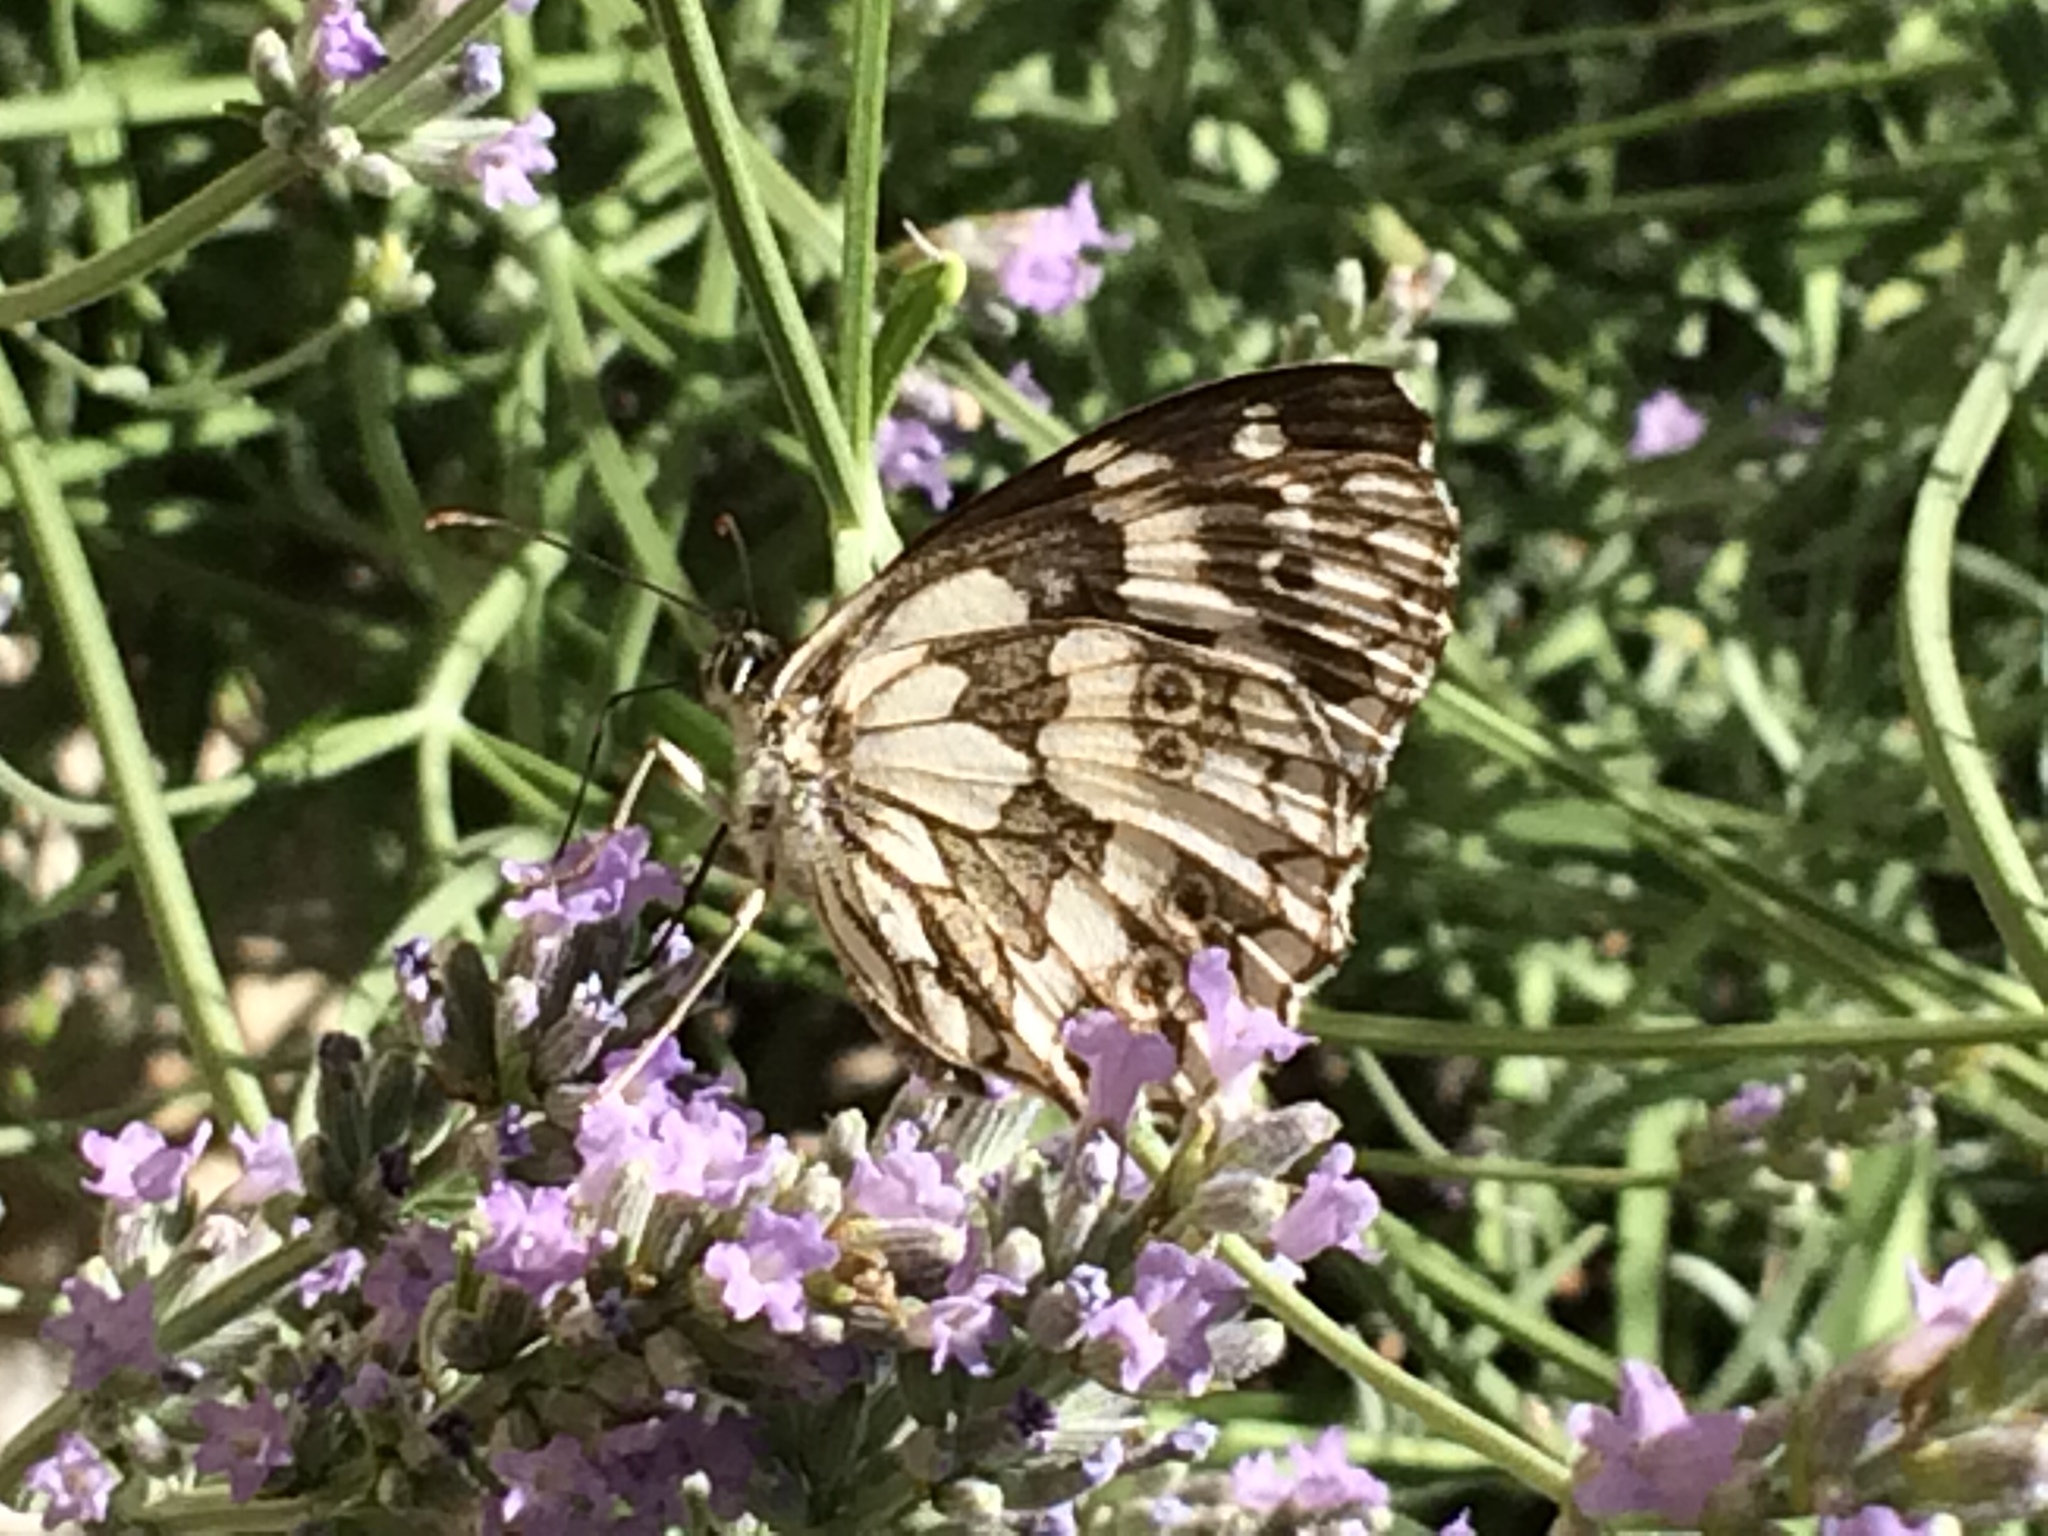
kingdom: Animalia
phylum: Arthropoda
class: Insecta
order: Lepidoptera
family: Nymphalidae
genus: Melanargia
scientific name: Melanargia galathea
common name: Marbled white
